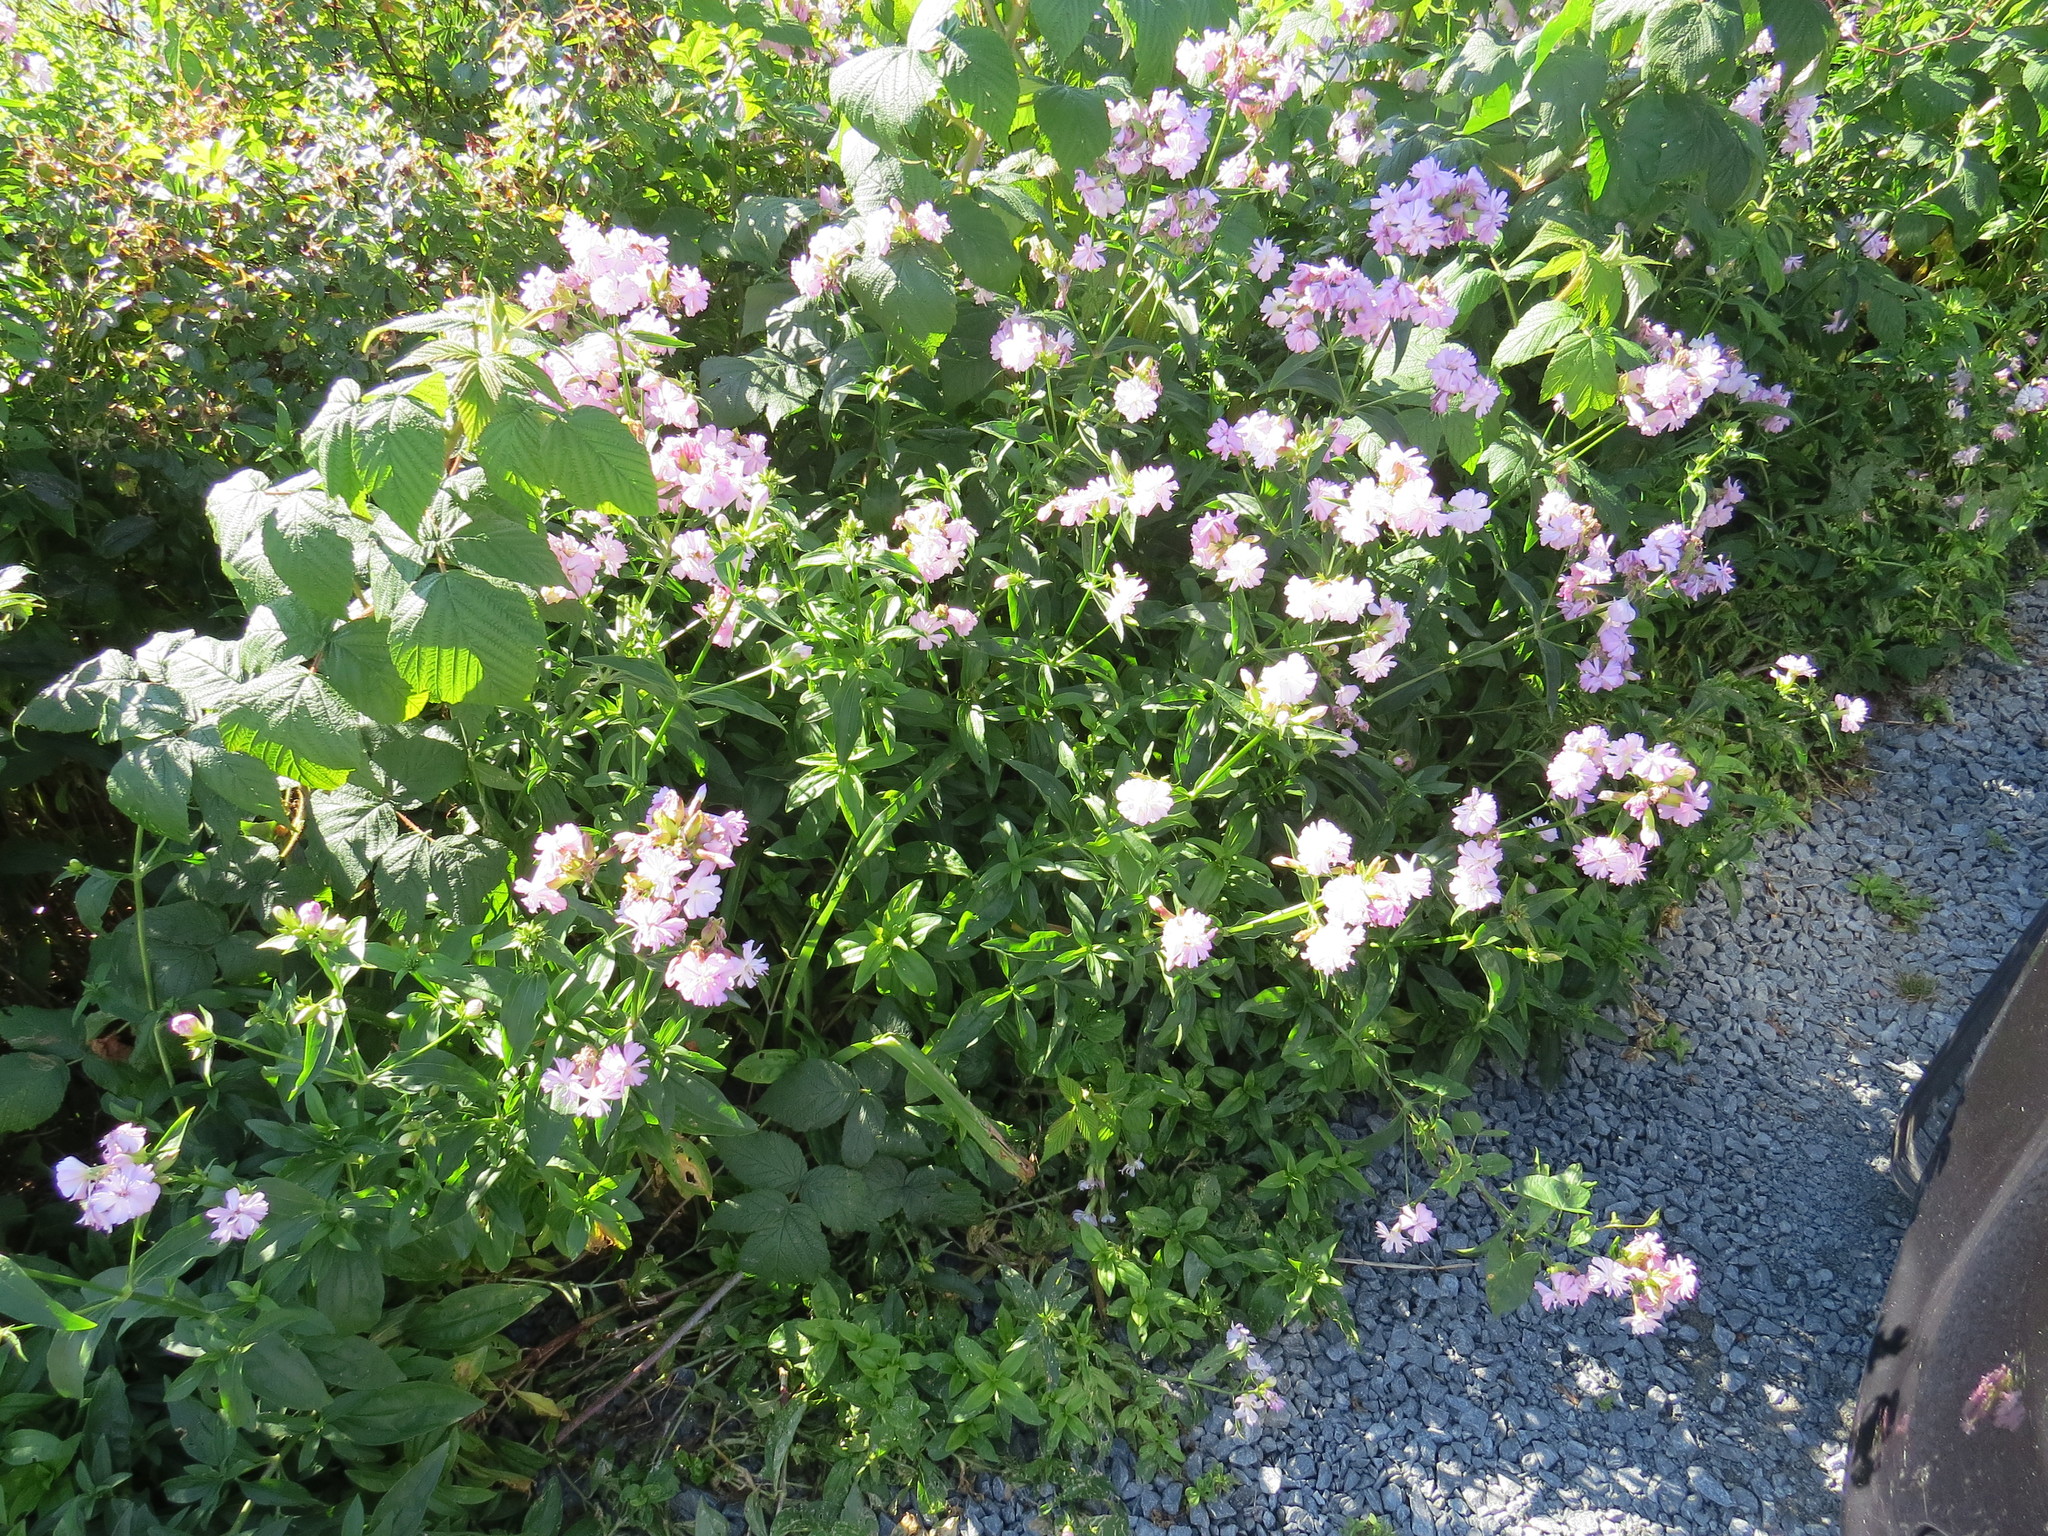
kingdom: Plantae
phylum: Tracheophyta
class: Magnoliopsida
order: Caryophyllales
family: Caryophyllaceae
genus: Saponaria
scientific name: Saponaria officinalis
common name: Soapwort
